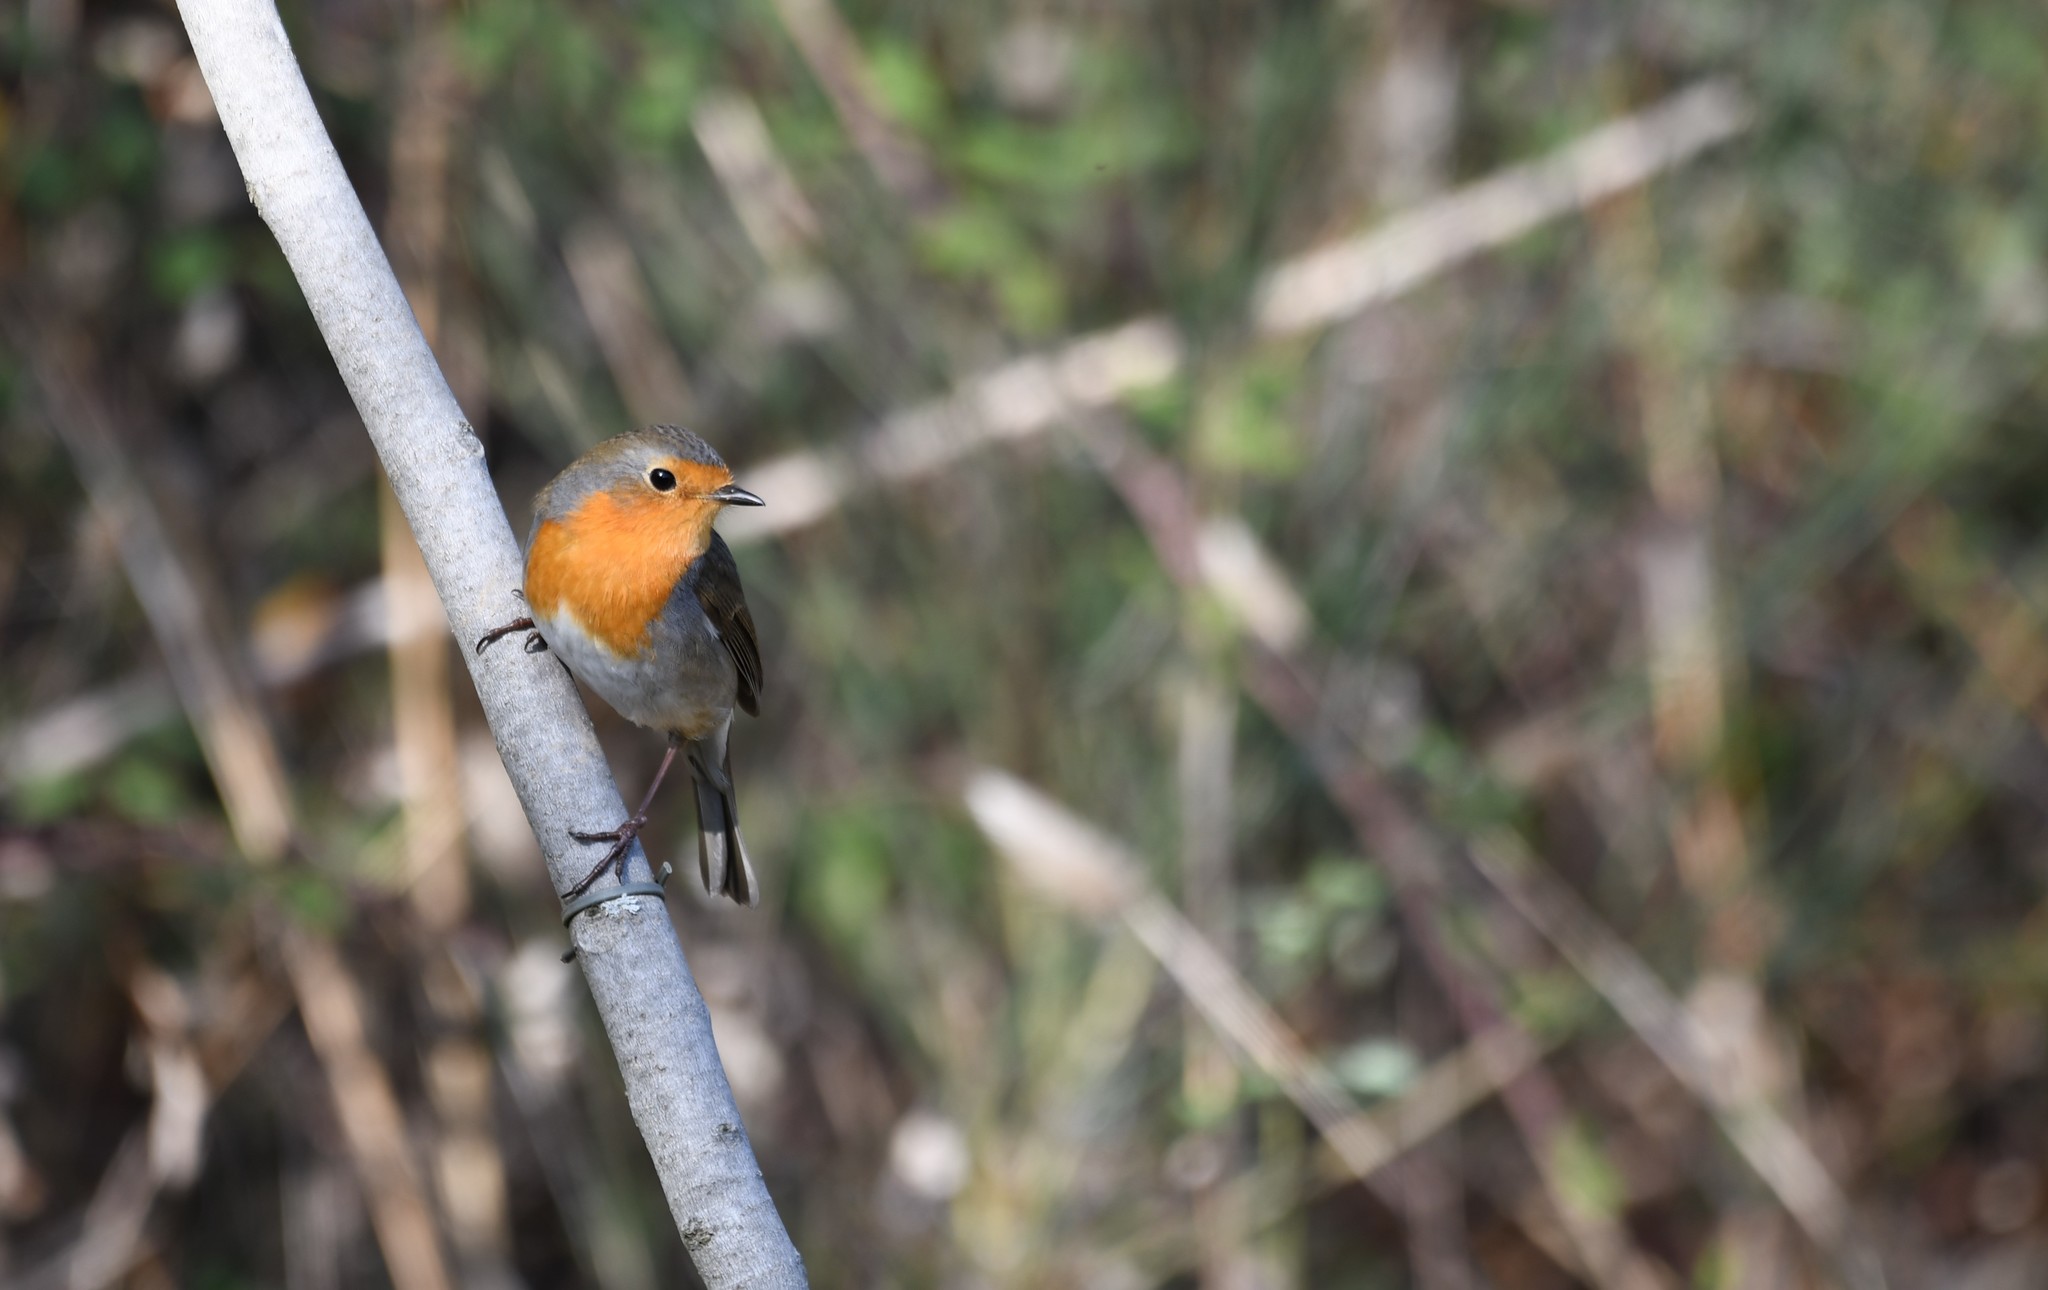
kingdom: Animalia
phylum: Chordata
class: Aves
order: Passeriformes
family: Muscicapidae
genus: Erithacus
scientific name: Erithacus rubecula
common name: European robin
